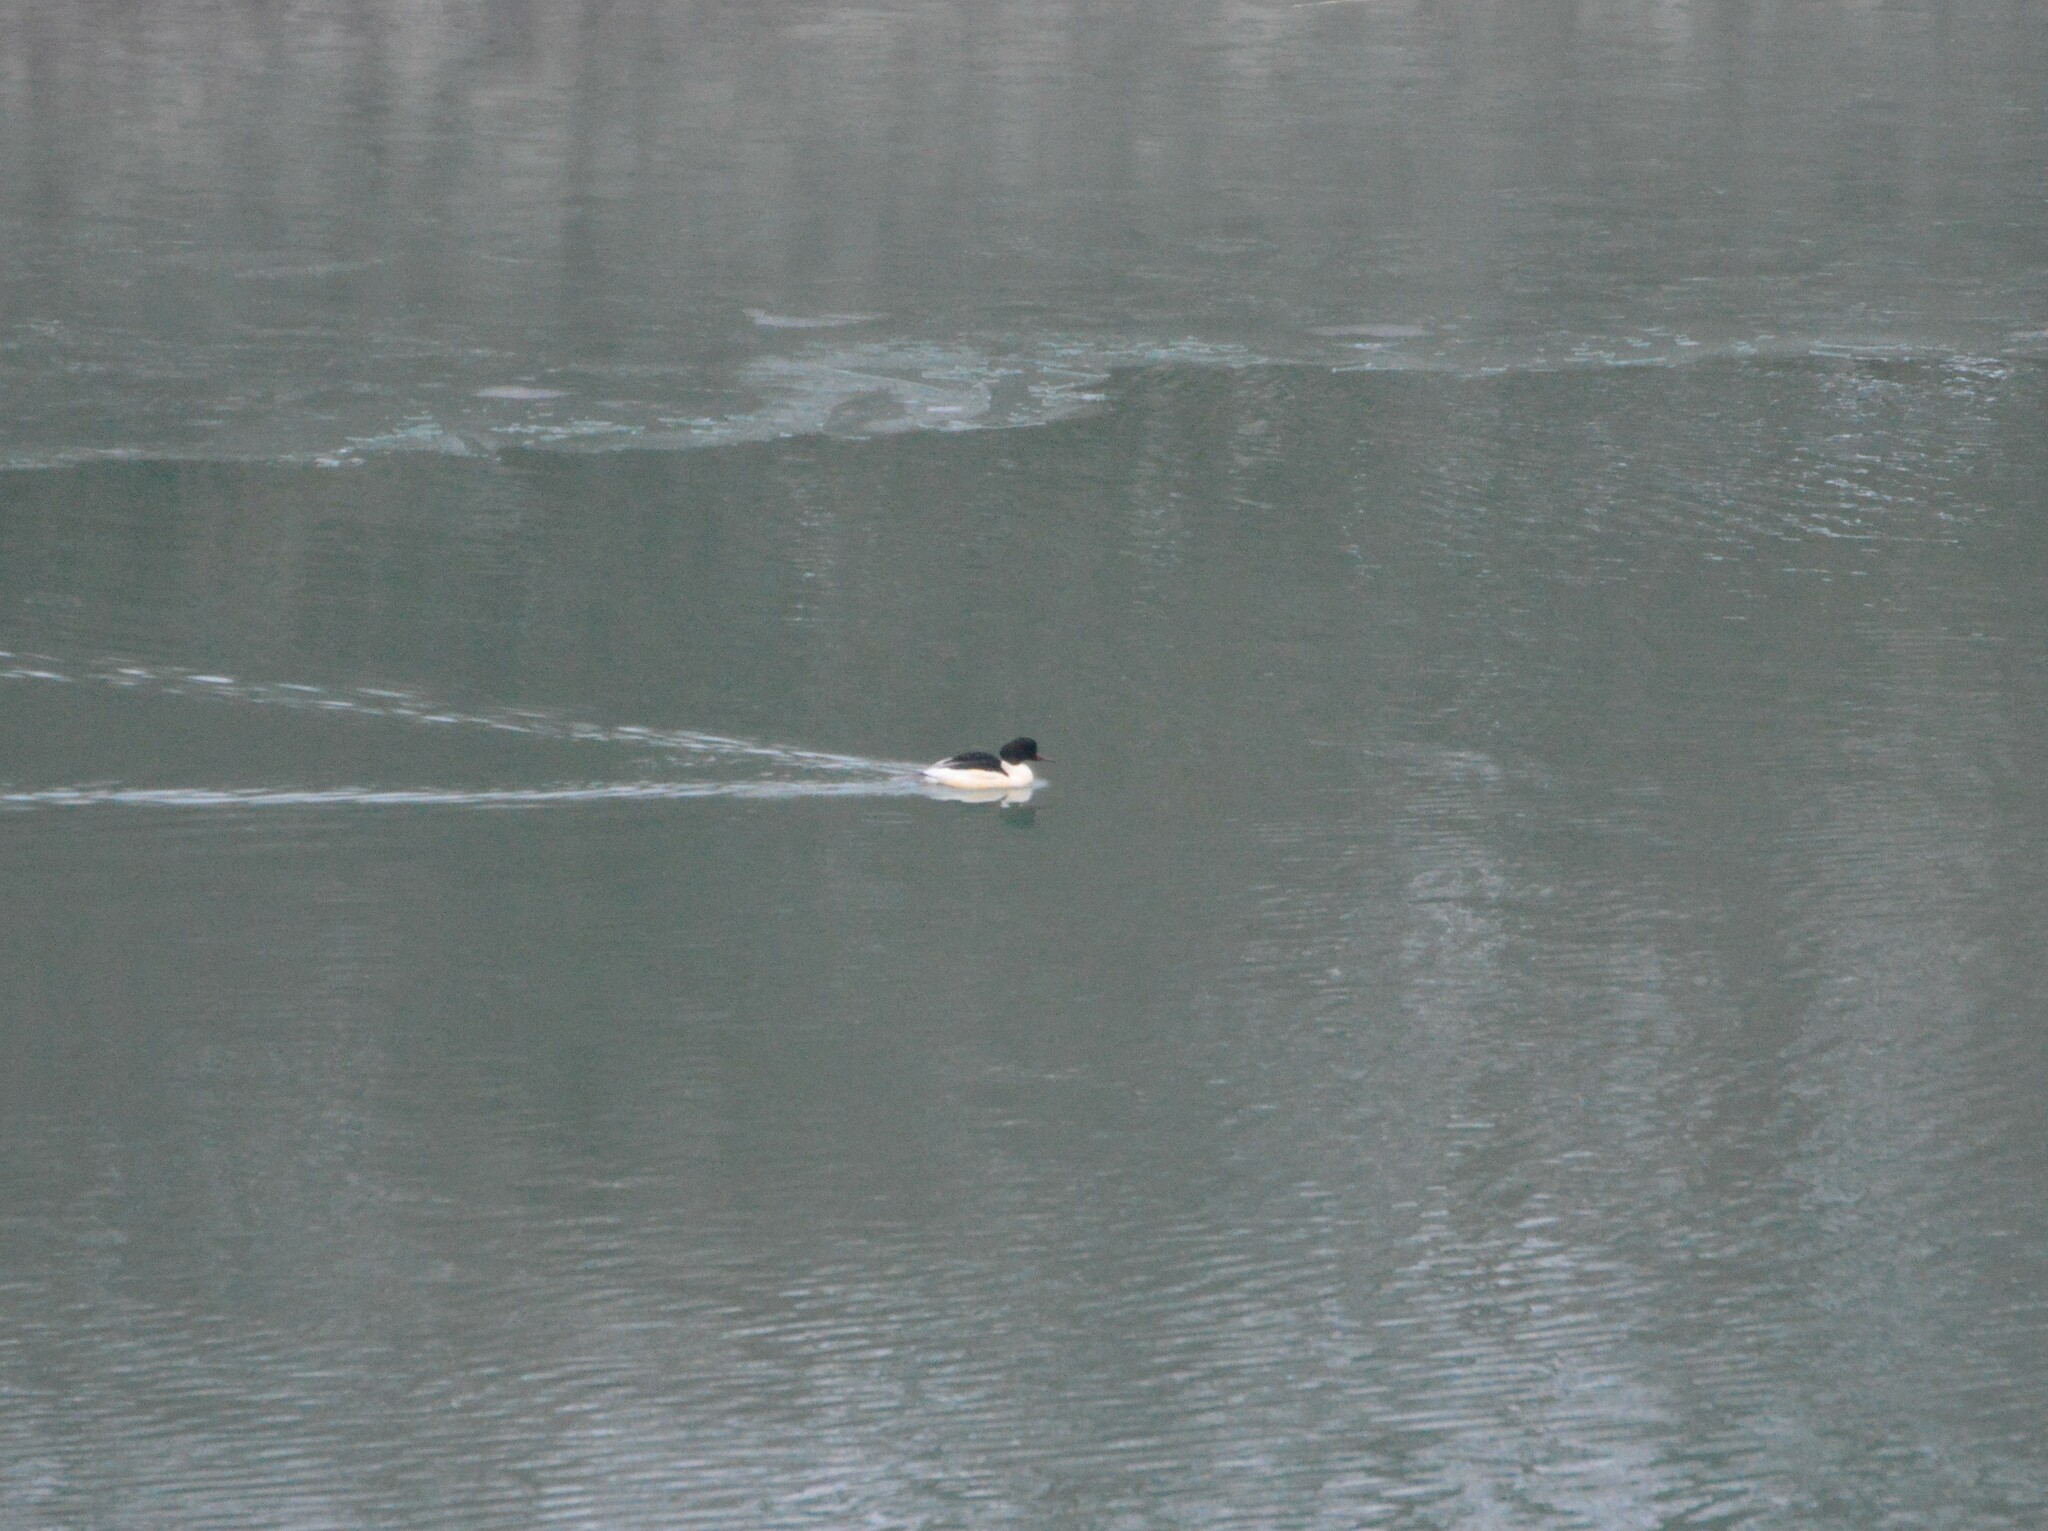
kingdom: Animalia
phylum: Chordata
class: Aves
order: Anseriformes
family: Anatidae
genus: Mergus
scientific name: Mergus merganser
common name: Common merganser
